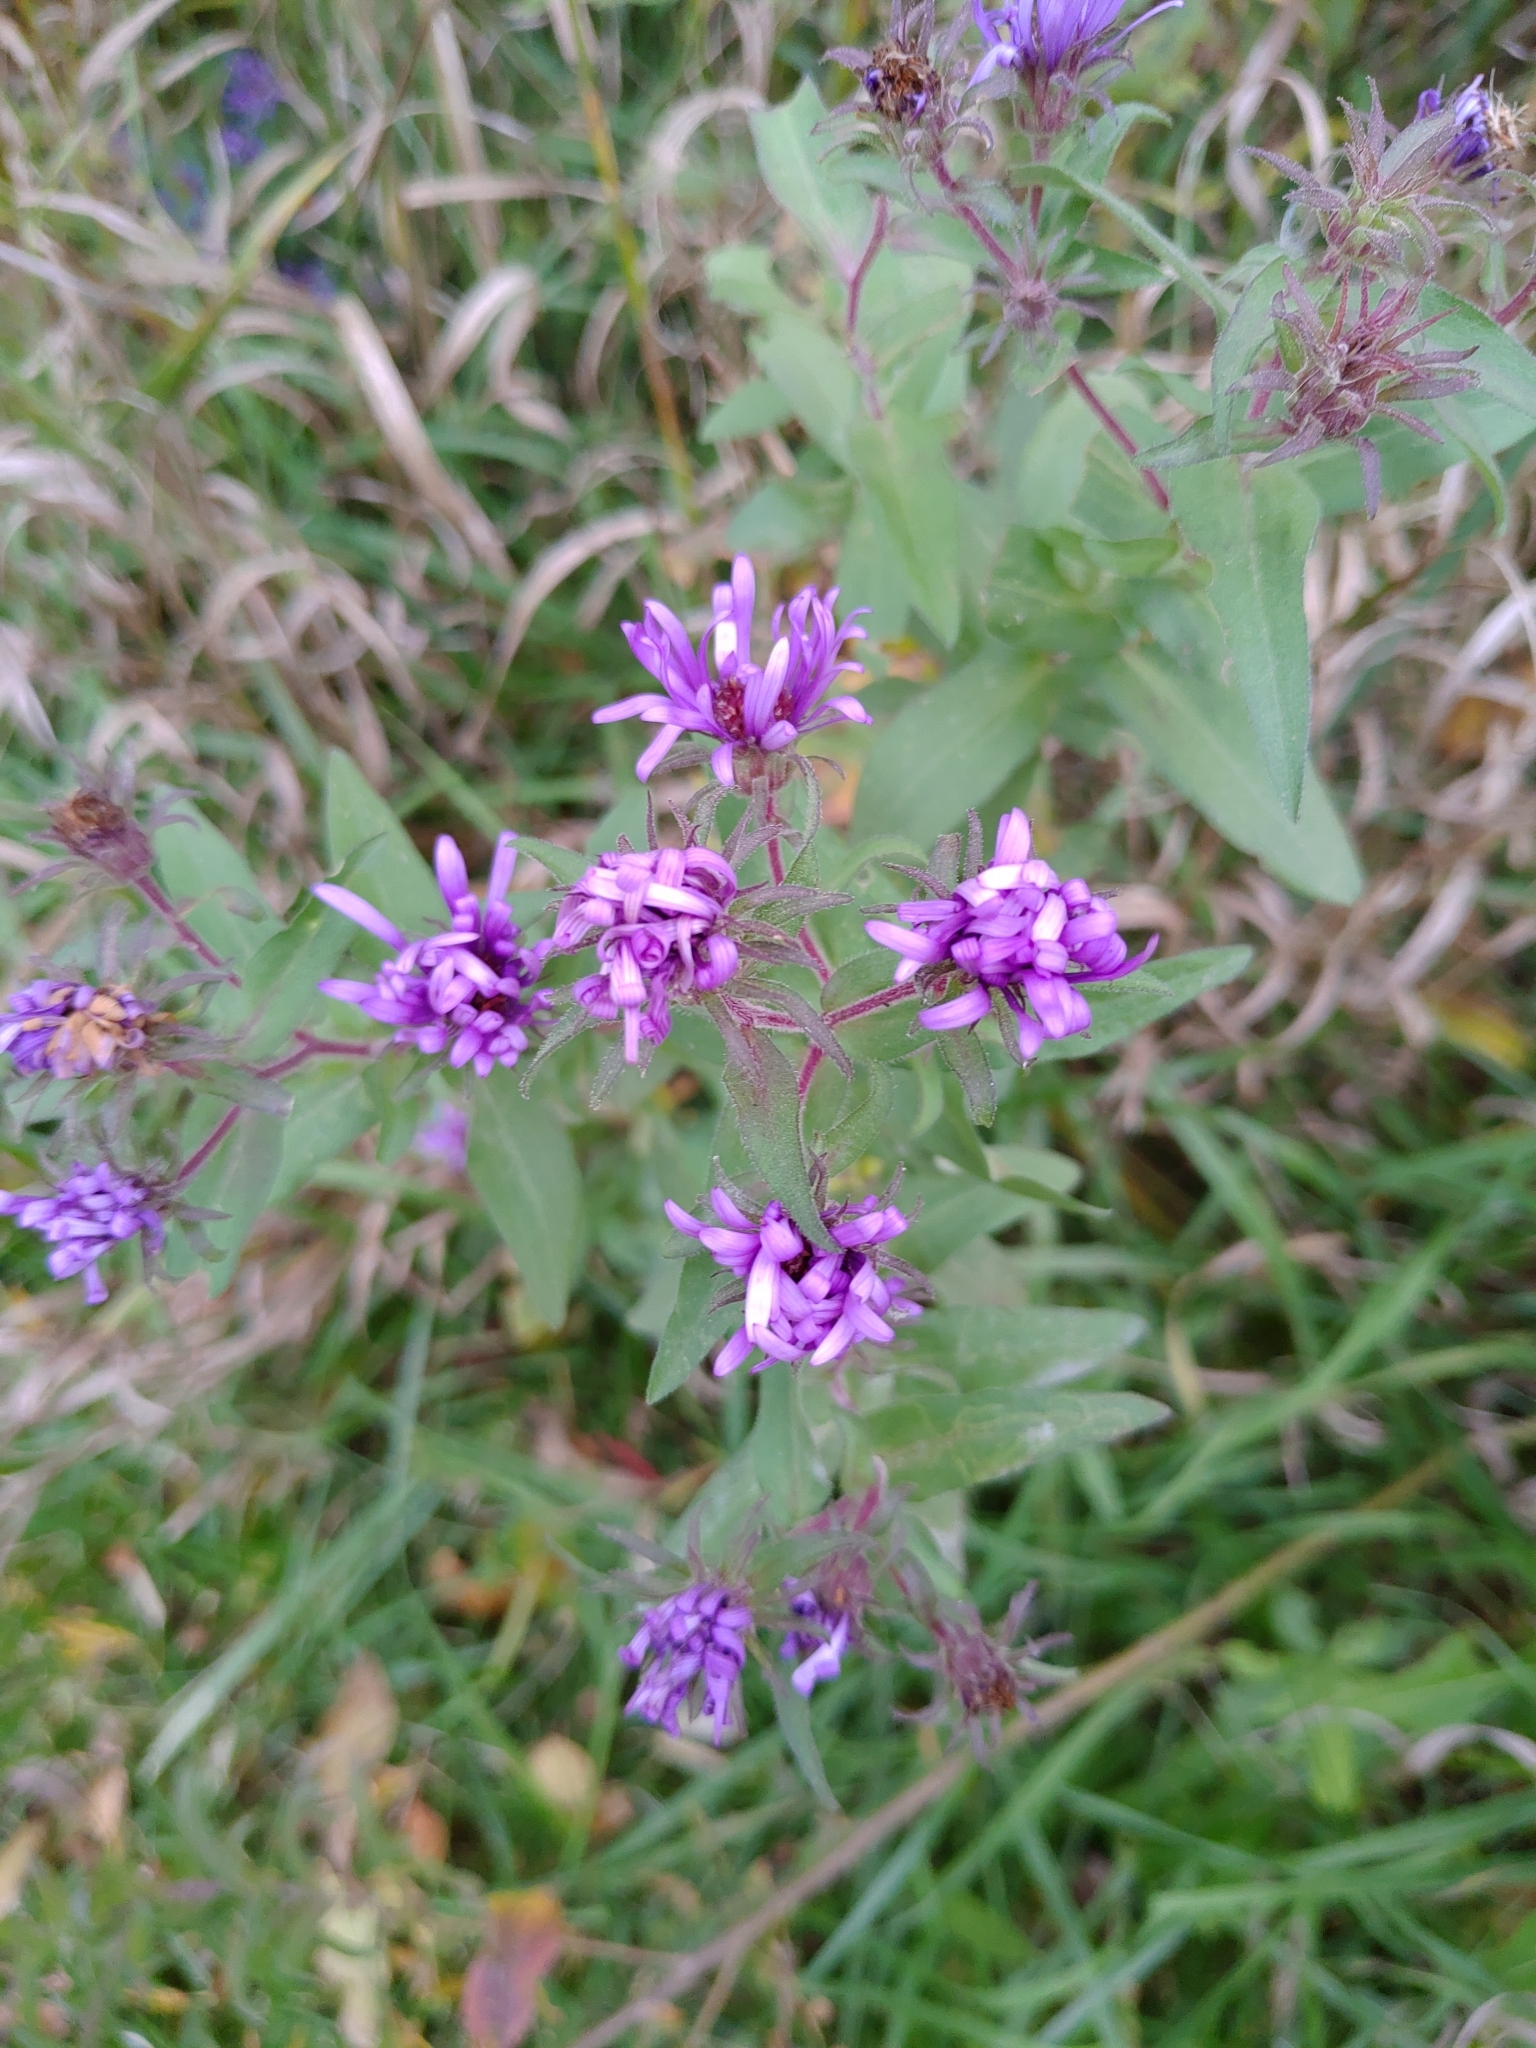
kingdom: Plantae
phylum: Tracheophyta
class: Magnoliopsida
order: Asterales
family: Asteraceae
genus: Symphyotrichum
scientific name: Symphyotrichum novae-angliae
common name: Michaelmas daisy
